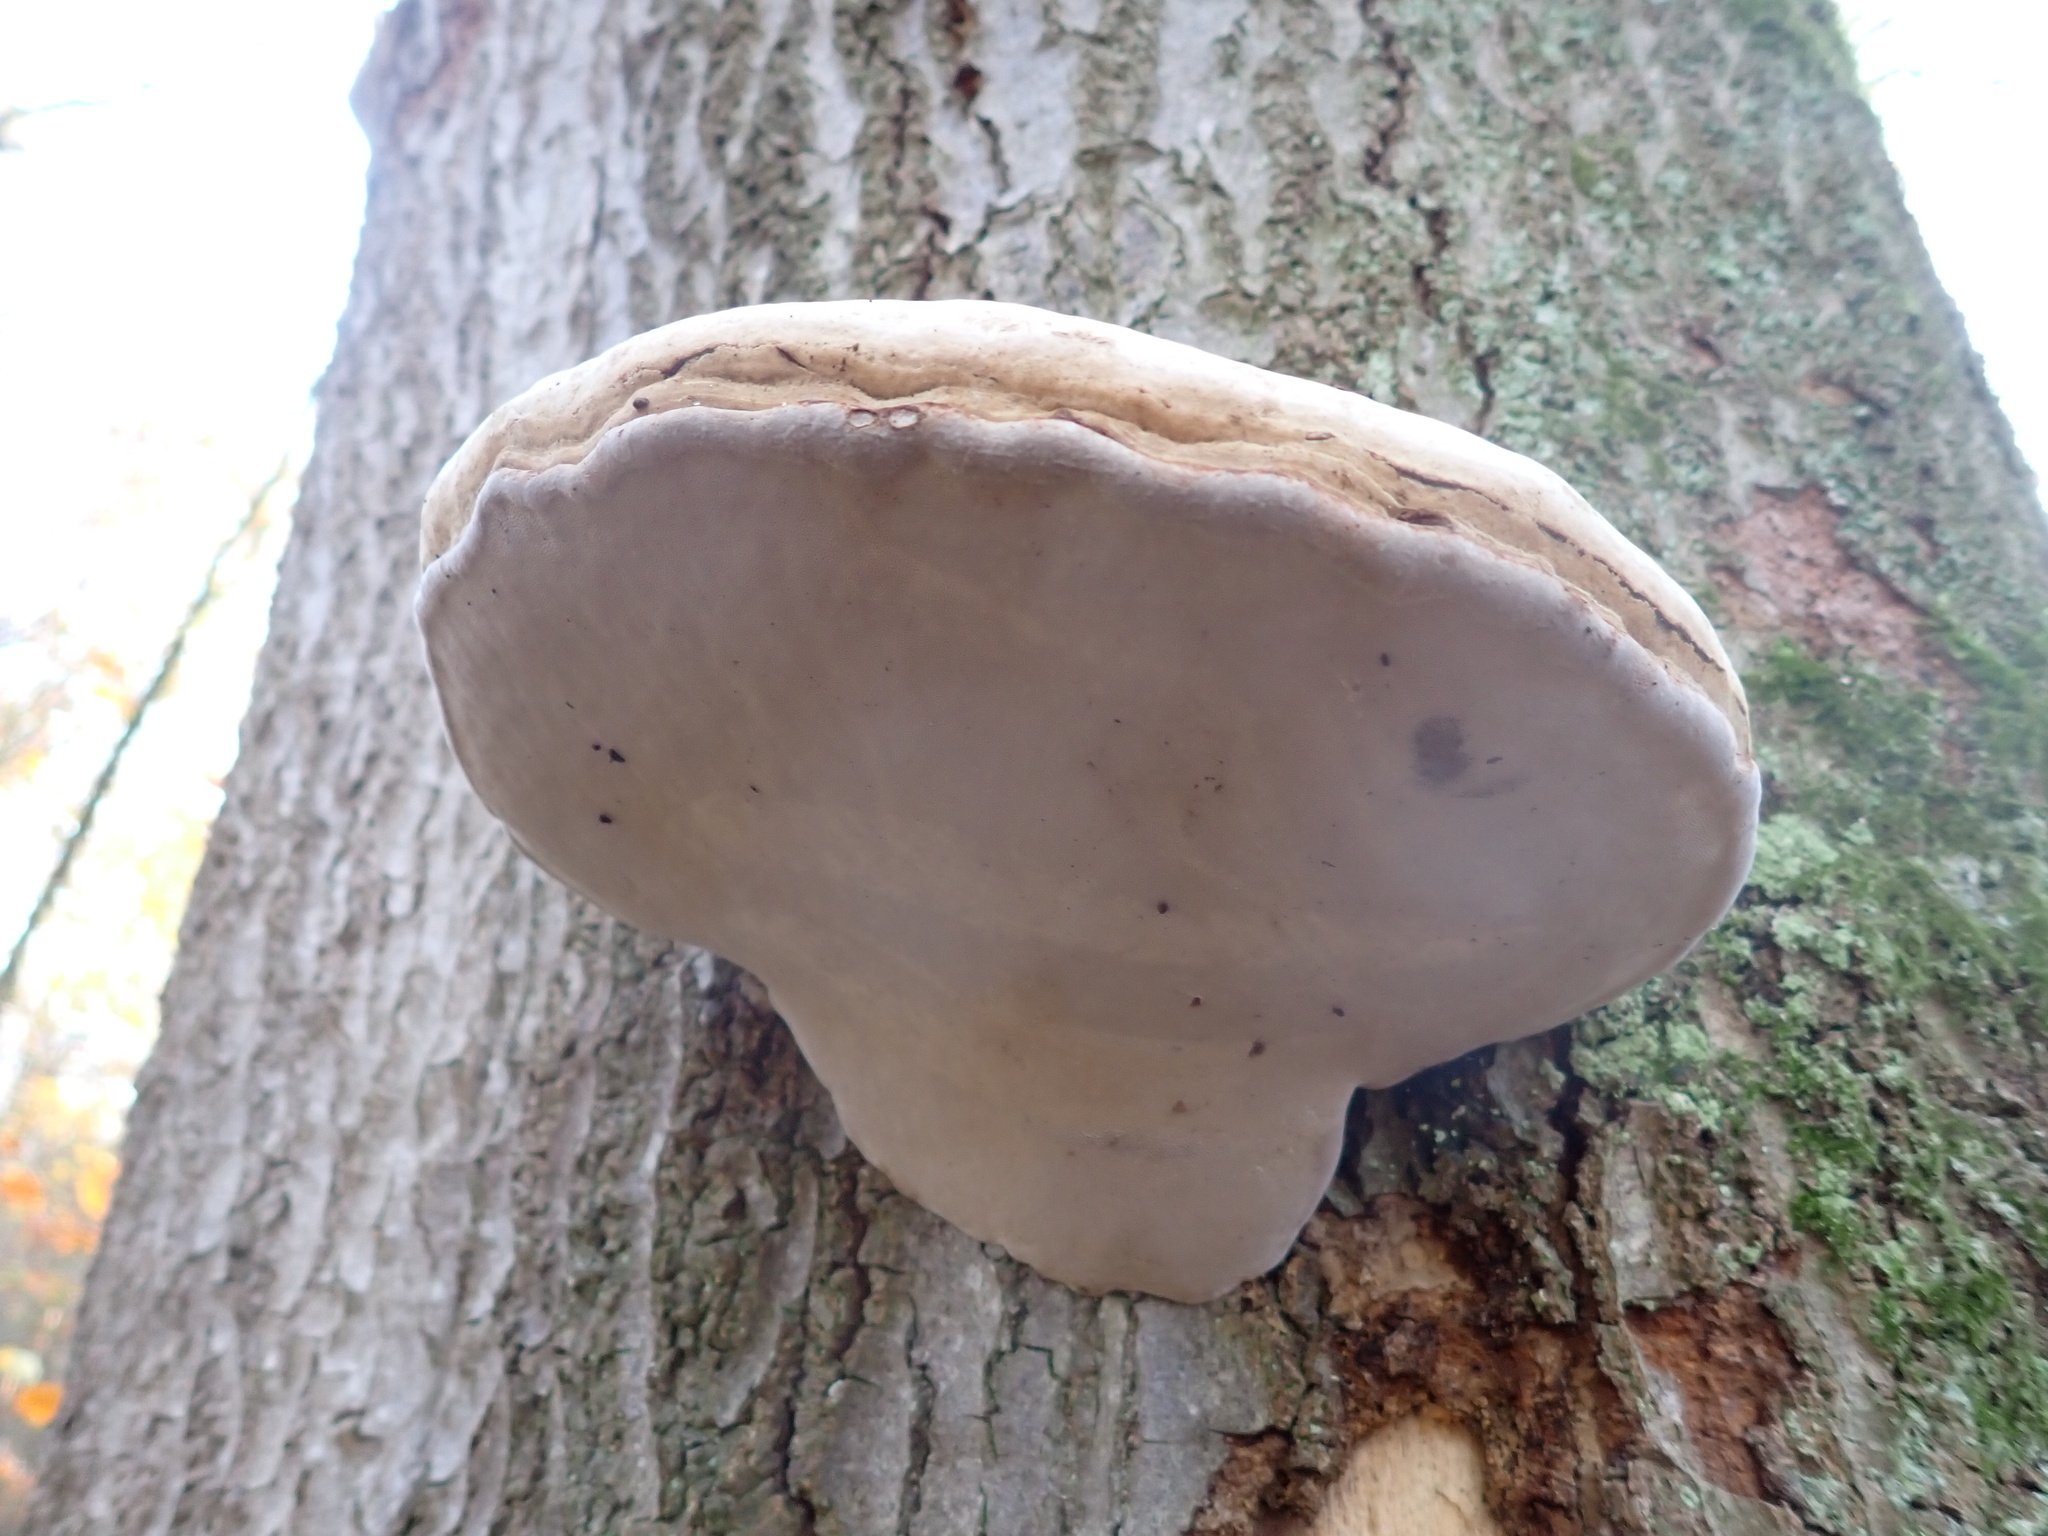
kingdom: Fungi
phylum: Basidiomycota
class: Agaricomycetes
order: Polyporales
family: Polyporaceae
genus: Fomes
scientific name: Fomes fomentarius
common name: Hoof fungus
